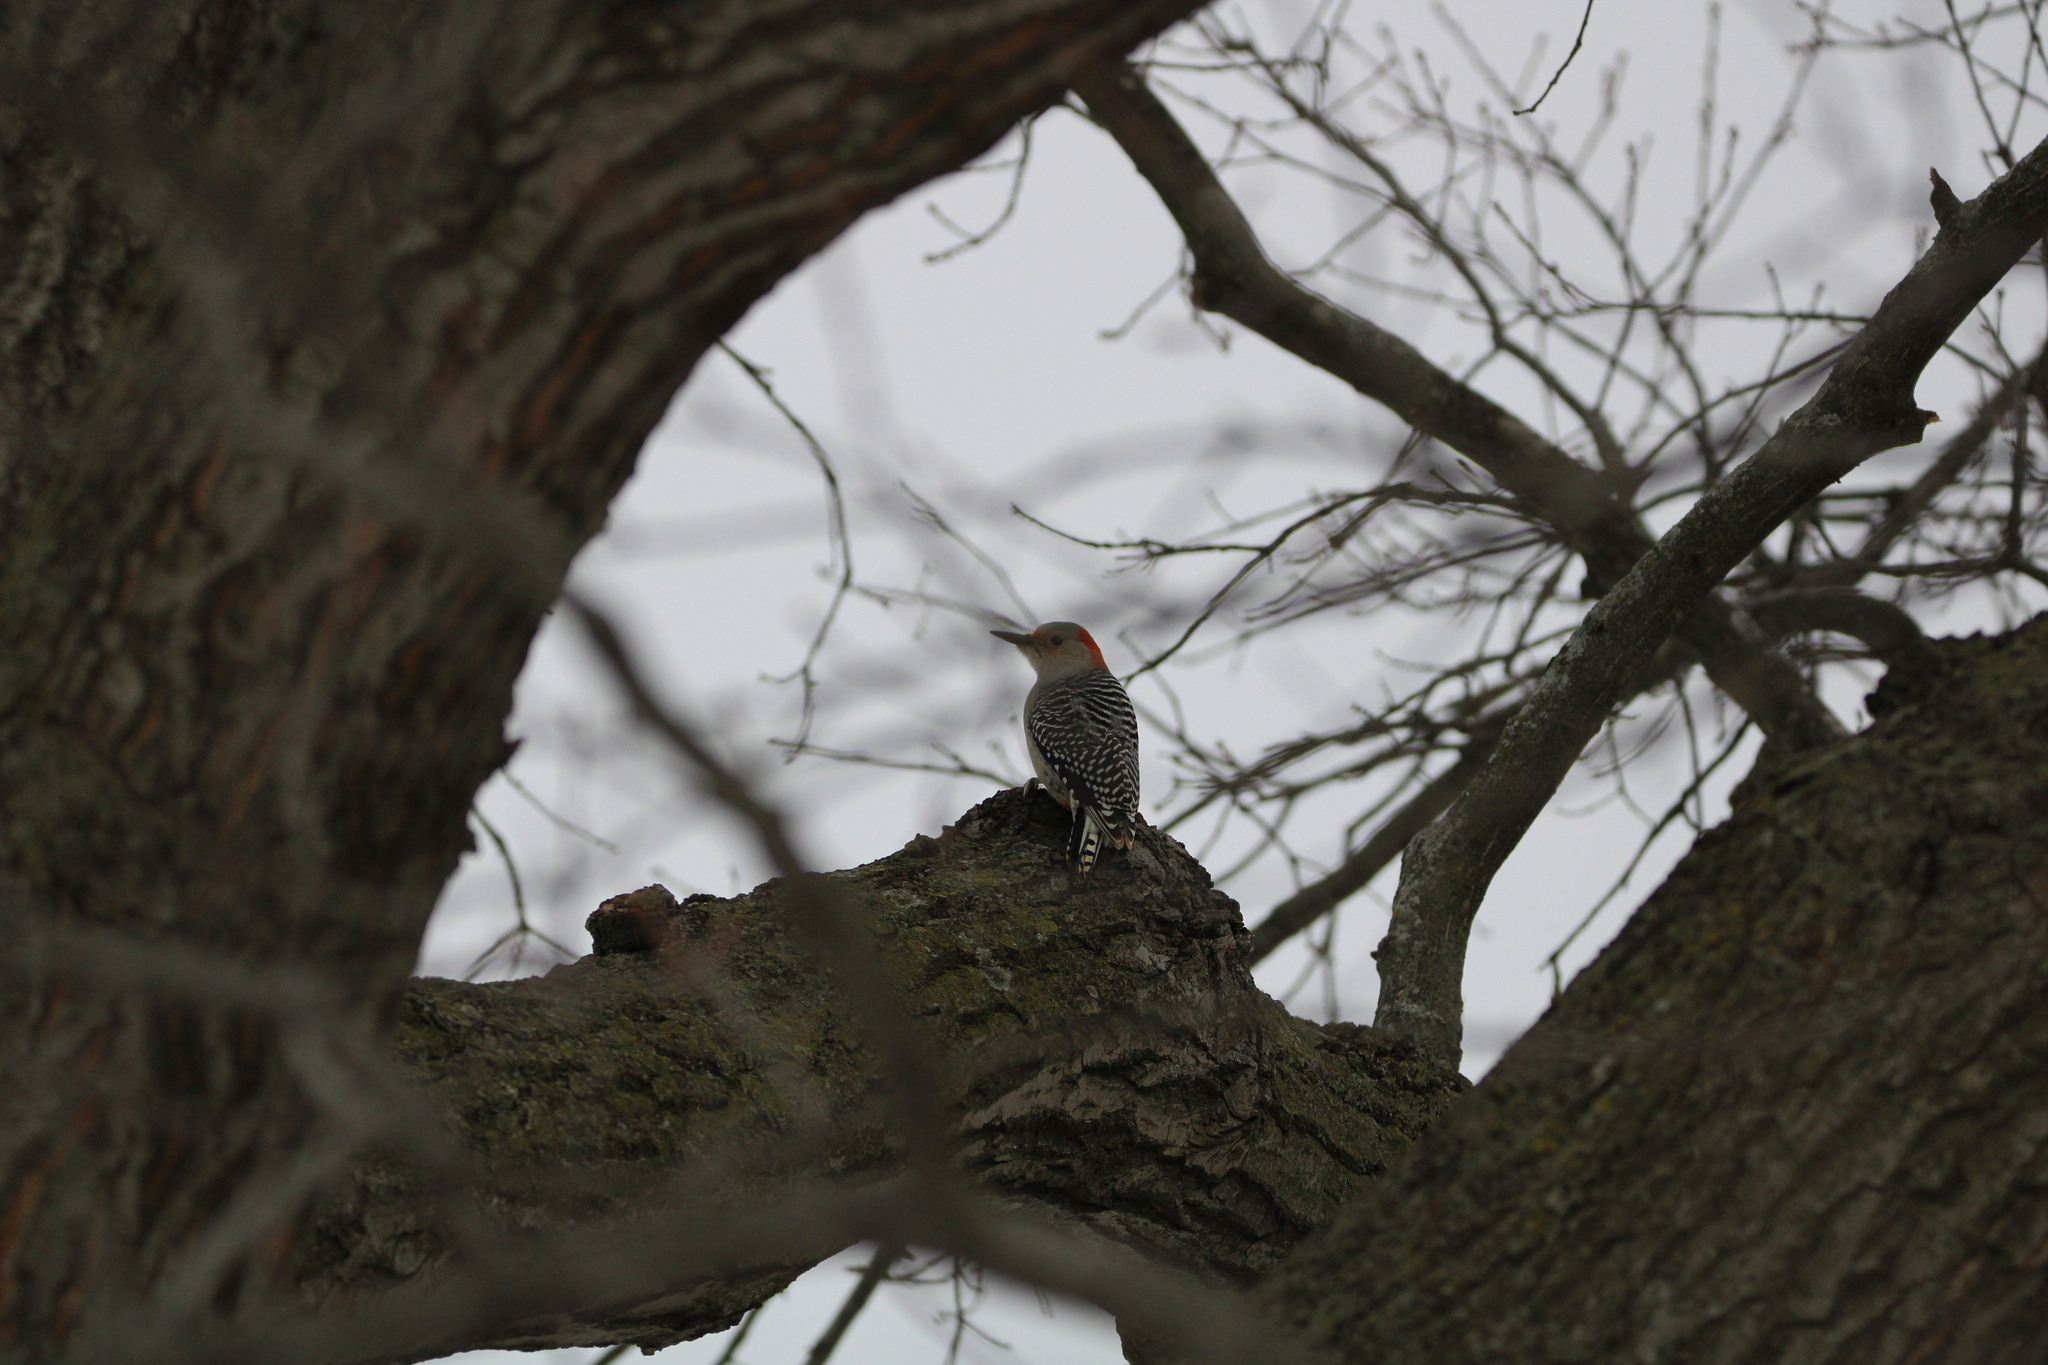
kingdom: Animalia
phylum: Chordata
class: Aves
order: Piciformes
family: Picidae
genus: Melanerpes
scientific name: Melanerpes carolinus
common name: Red-bellied woodpecker
